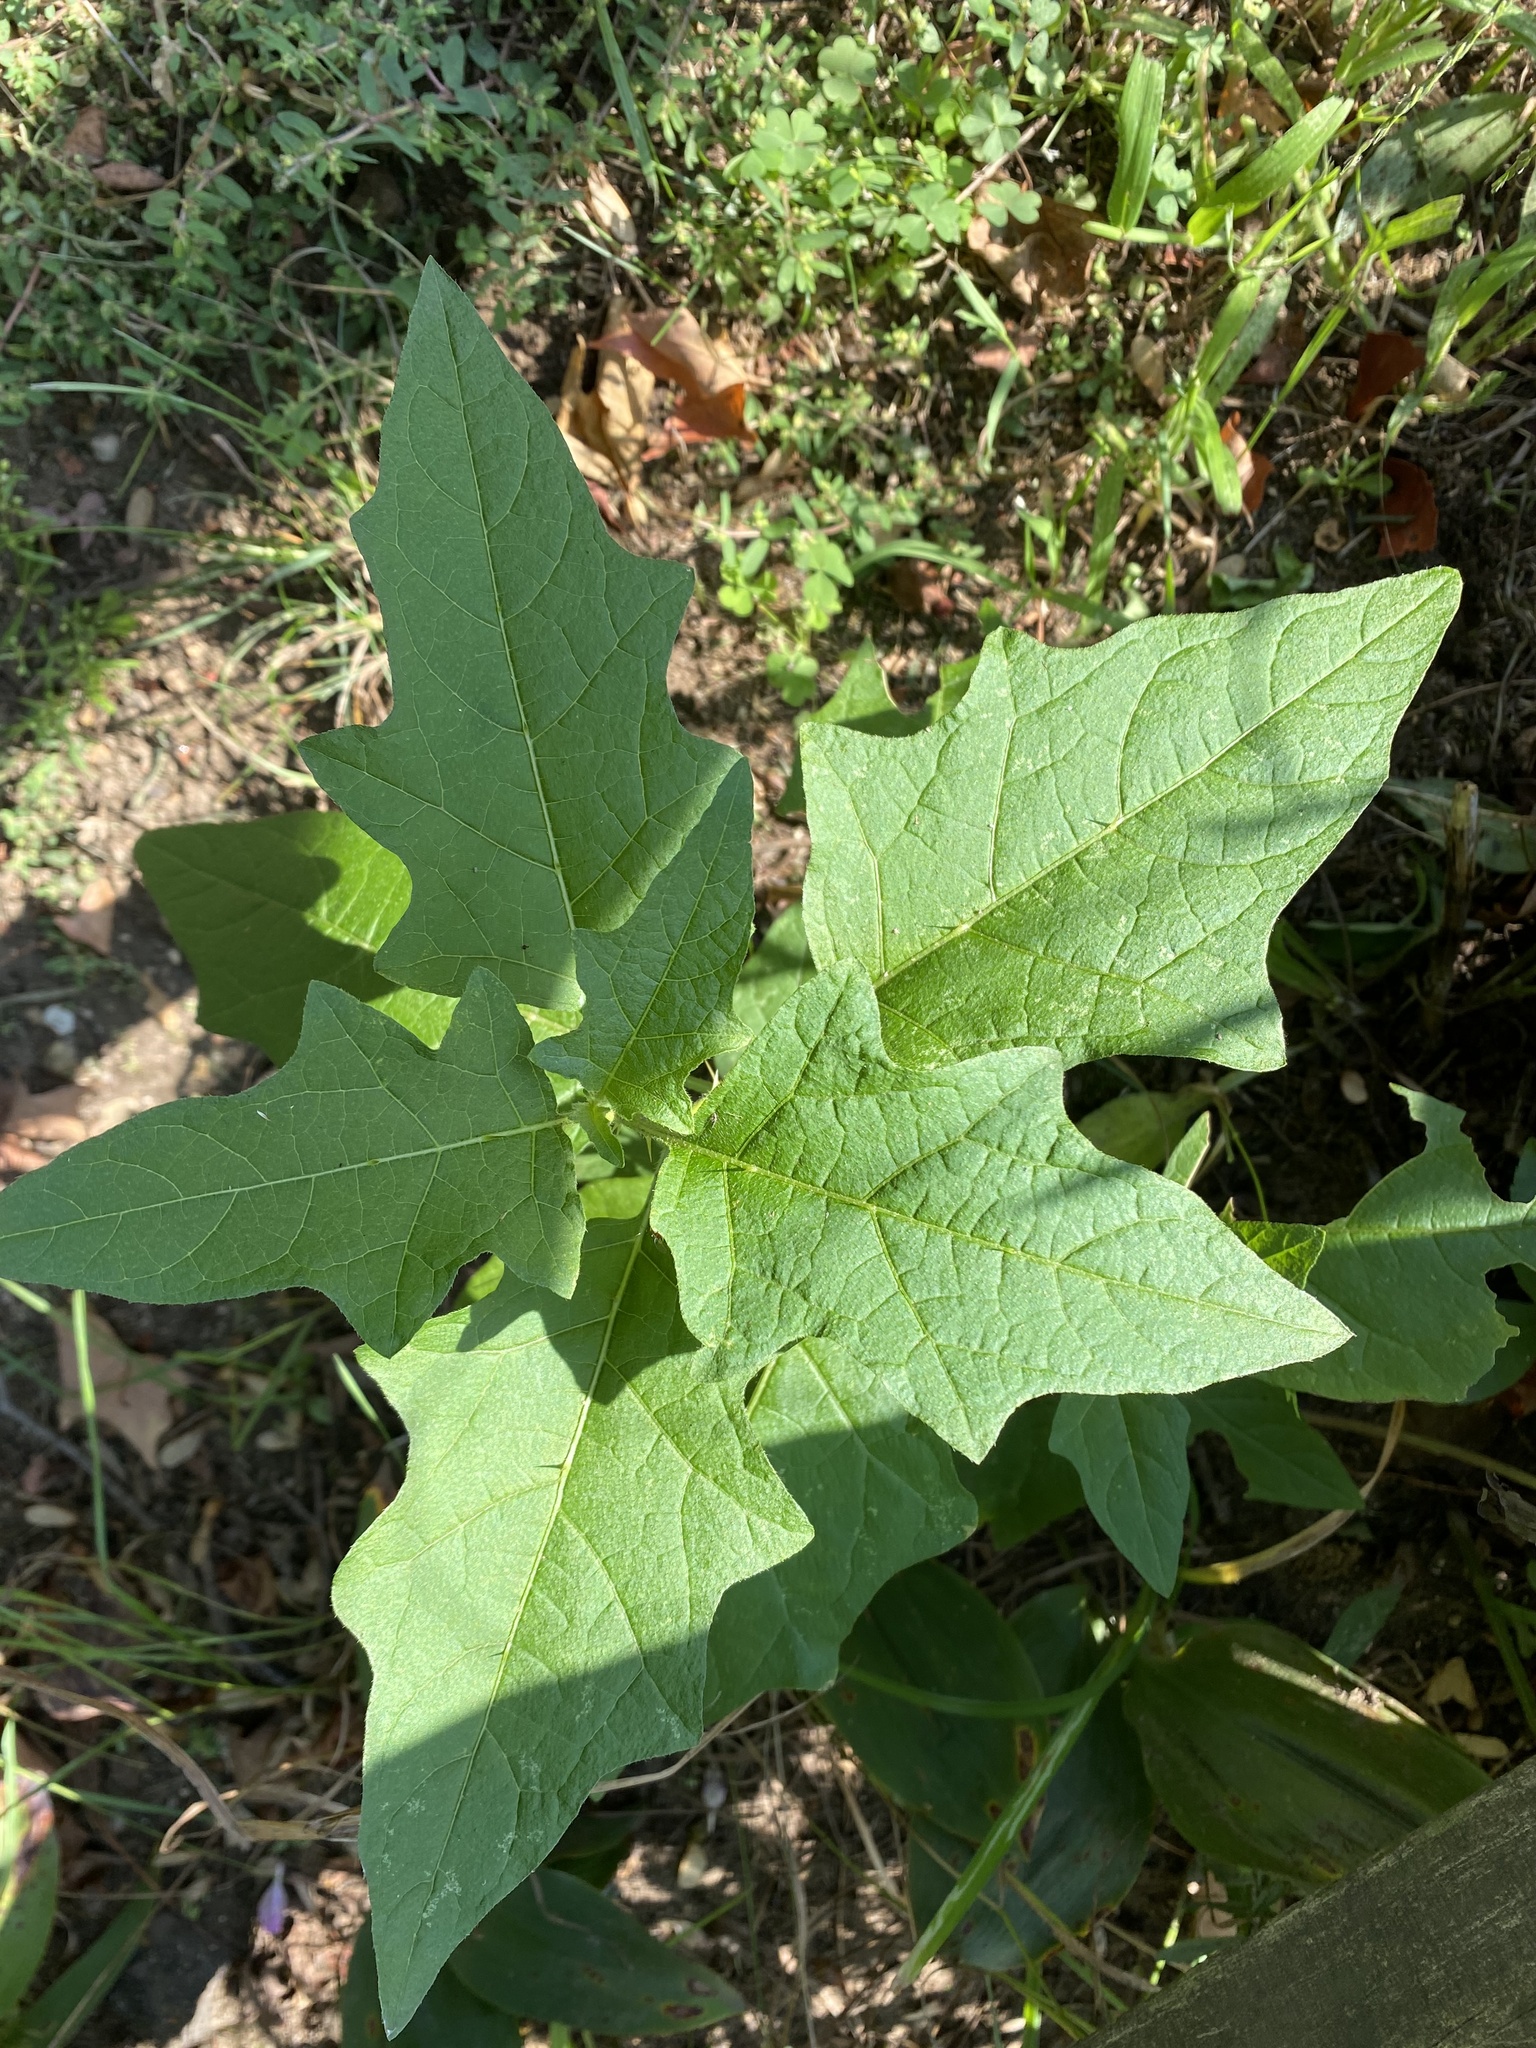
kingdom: Plantae
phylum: Tracheophyta
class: Magnoliopsida
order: Solanales
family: Solanaceae
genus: Solanum
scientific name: Solanum carolinense
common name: Horse-nettle
